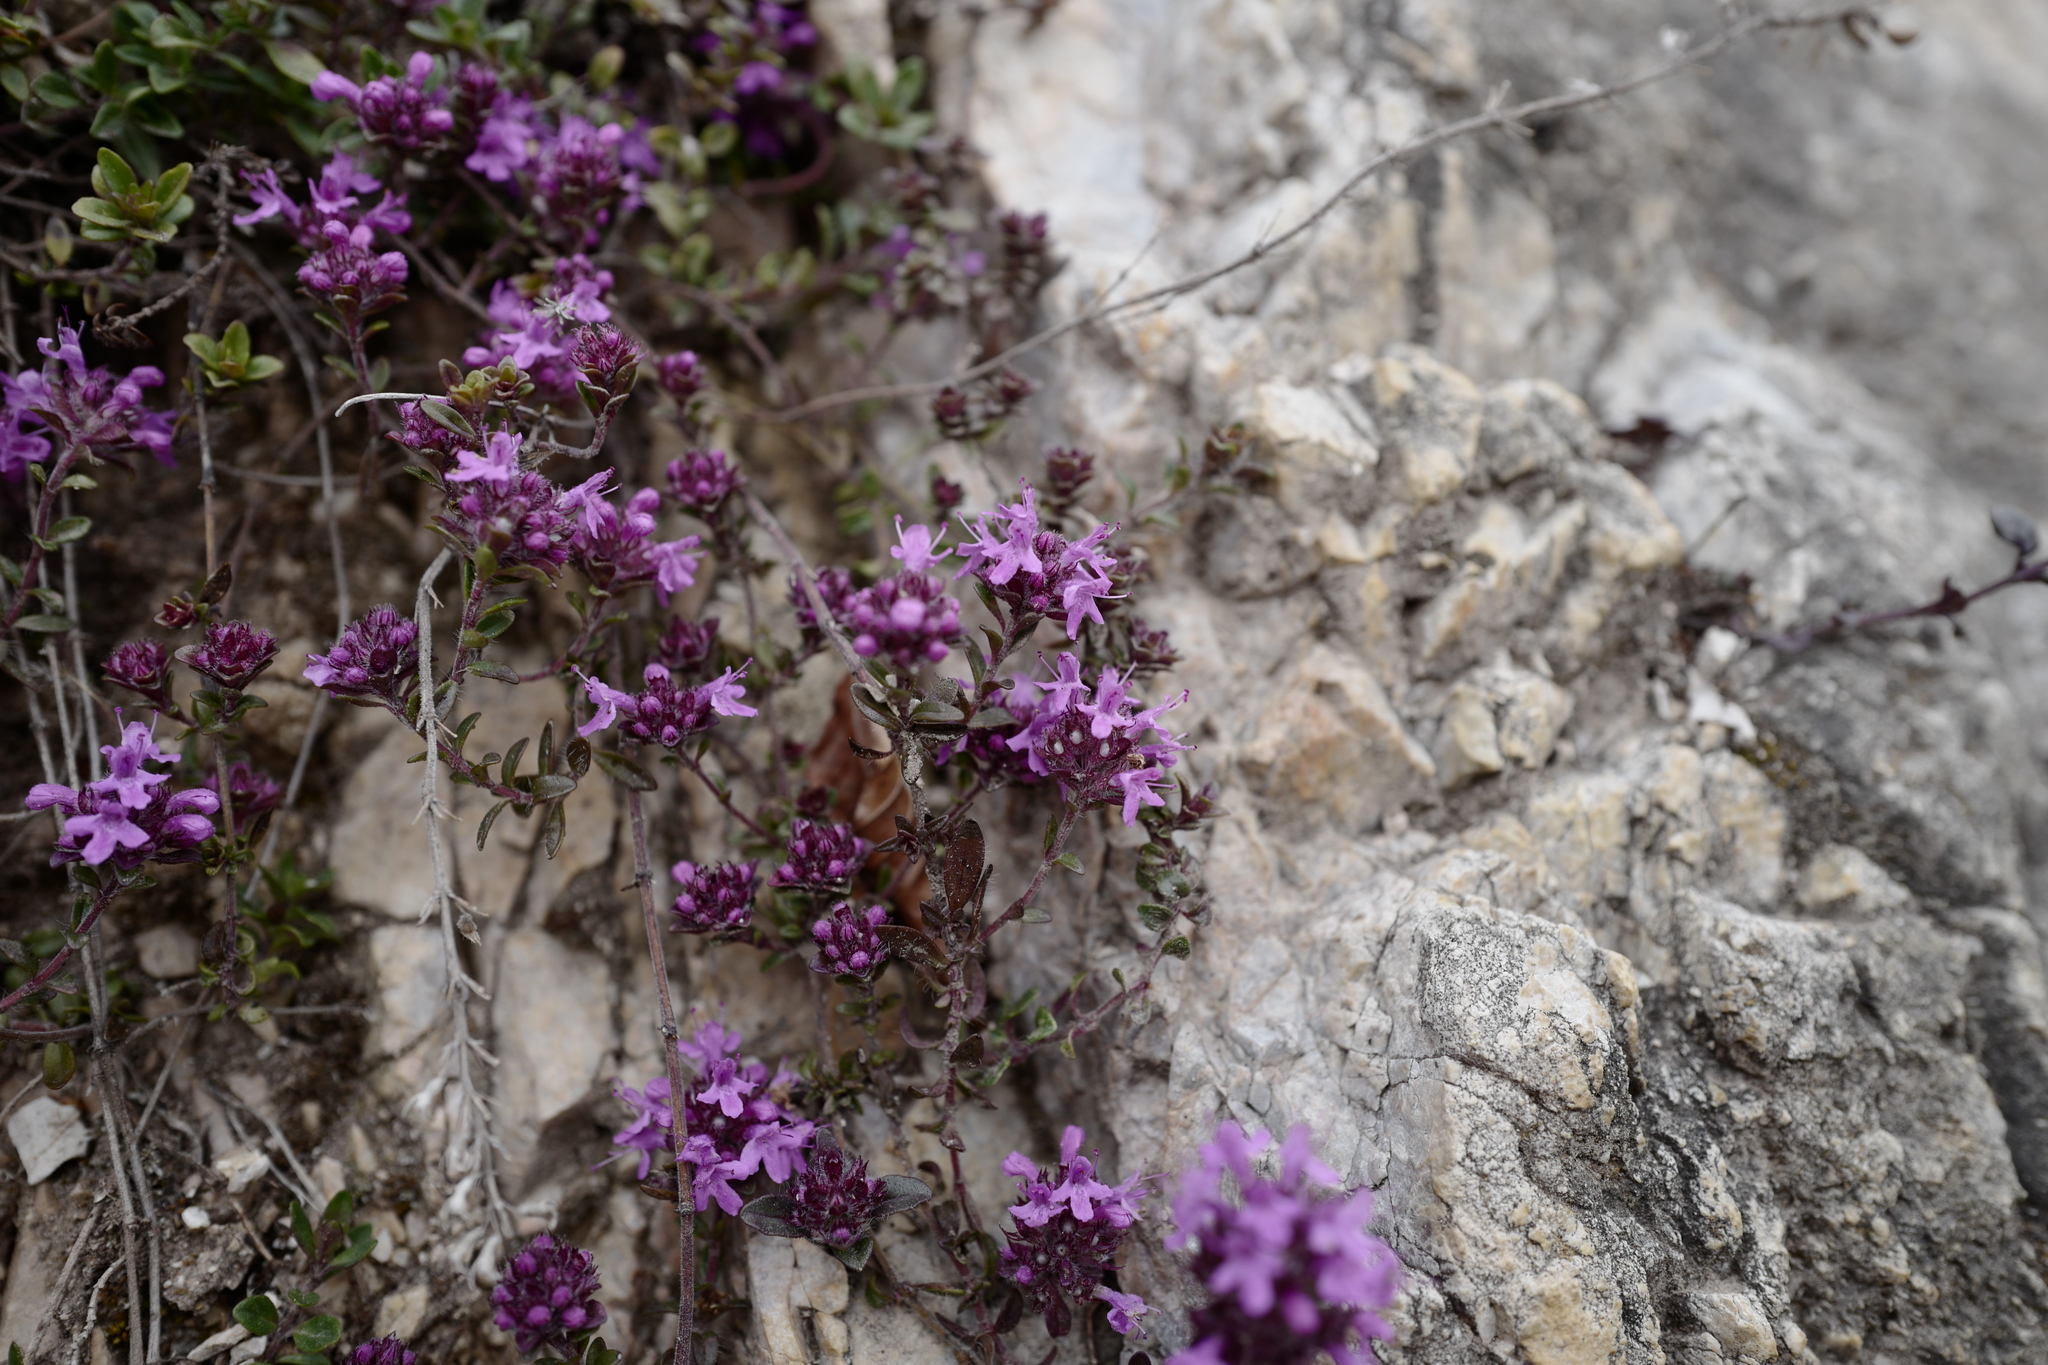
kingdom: Plantae
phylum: Tracheophyta
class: Magnoliopsida
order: Lamiales
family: Lamiaceae
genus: Thymus
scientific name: Thymus praecox
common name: Wild thyme
